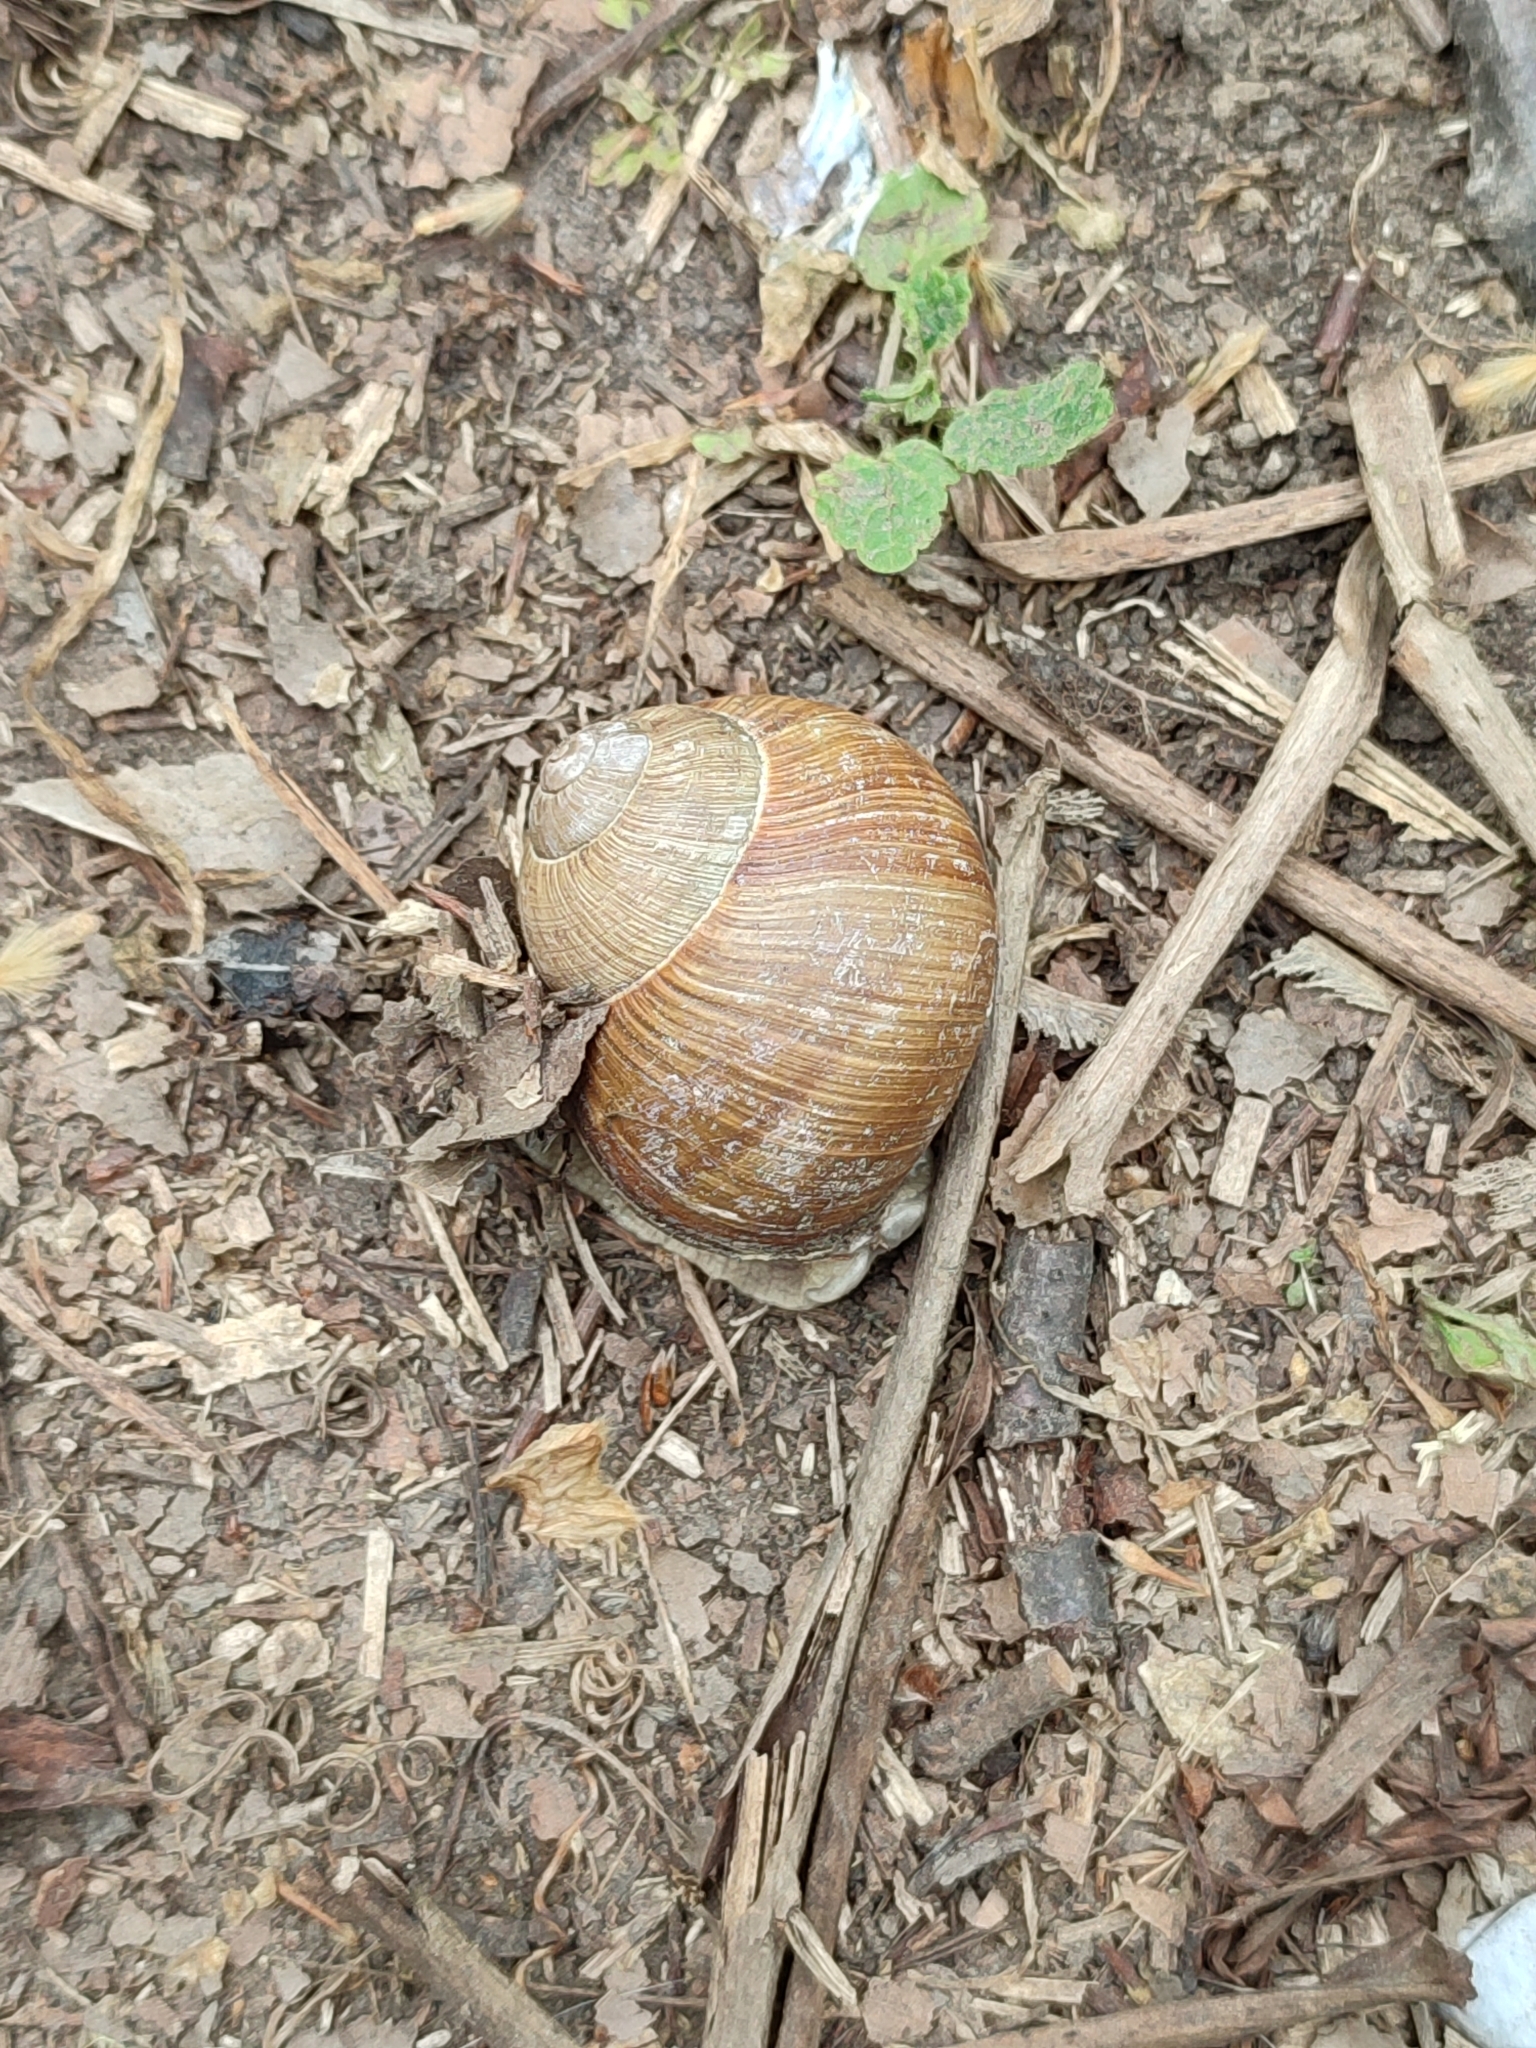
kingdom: Animalia
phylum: Mollusca
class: Gastropoda
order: Stylommatophora
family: Helicidae
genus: Helix
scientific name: Helix pomatia
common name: Roman snail
